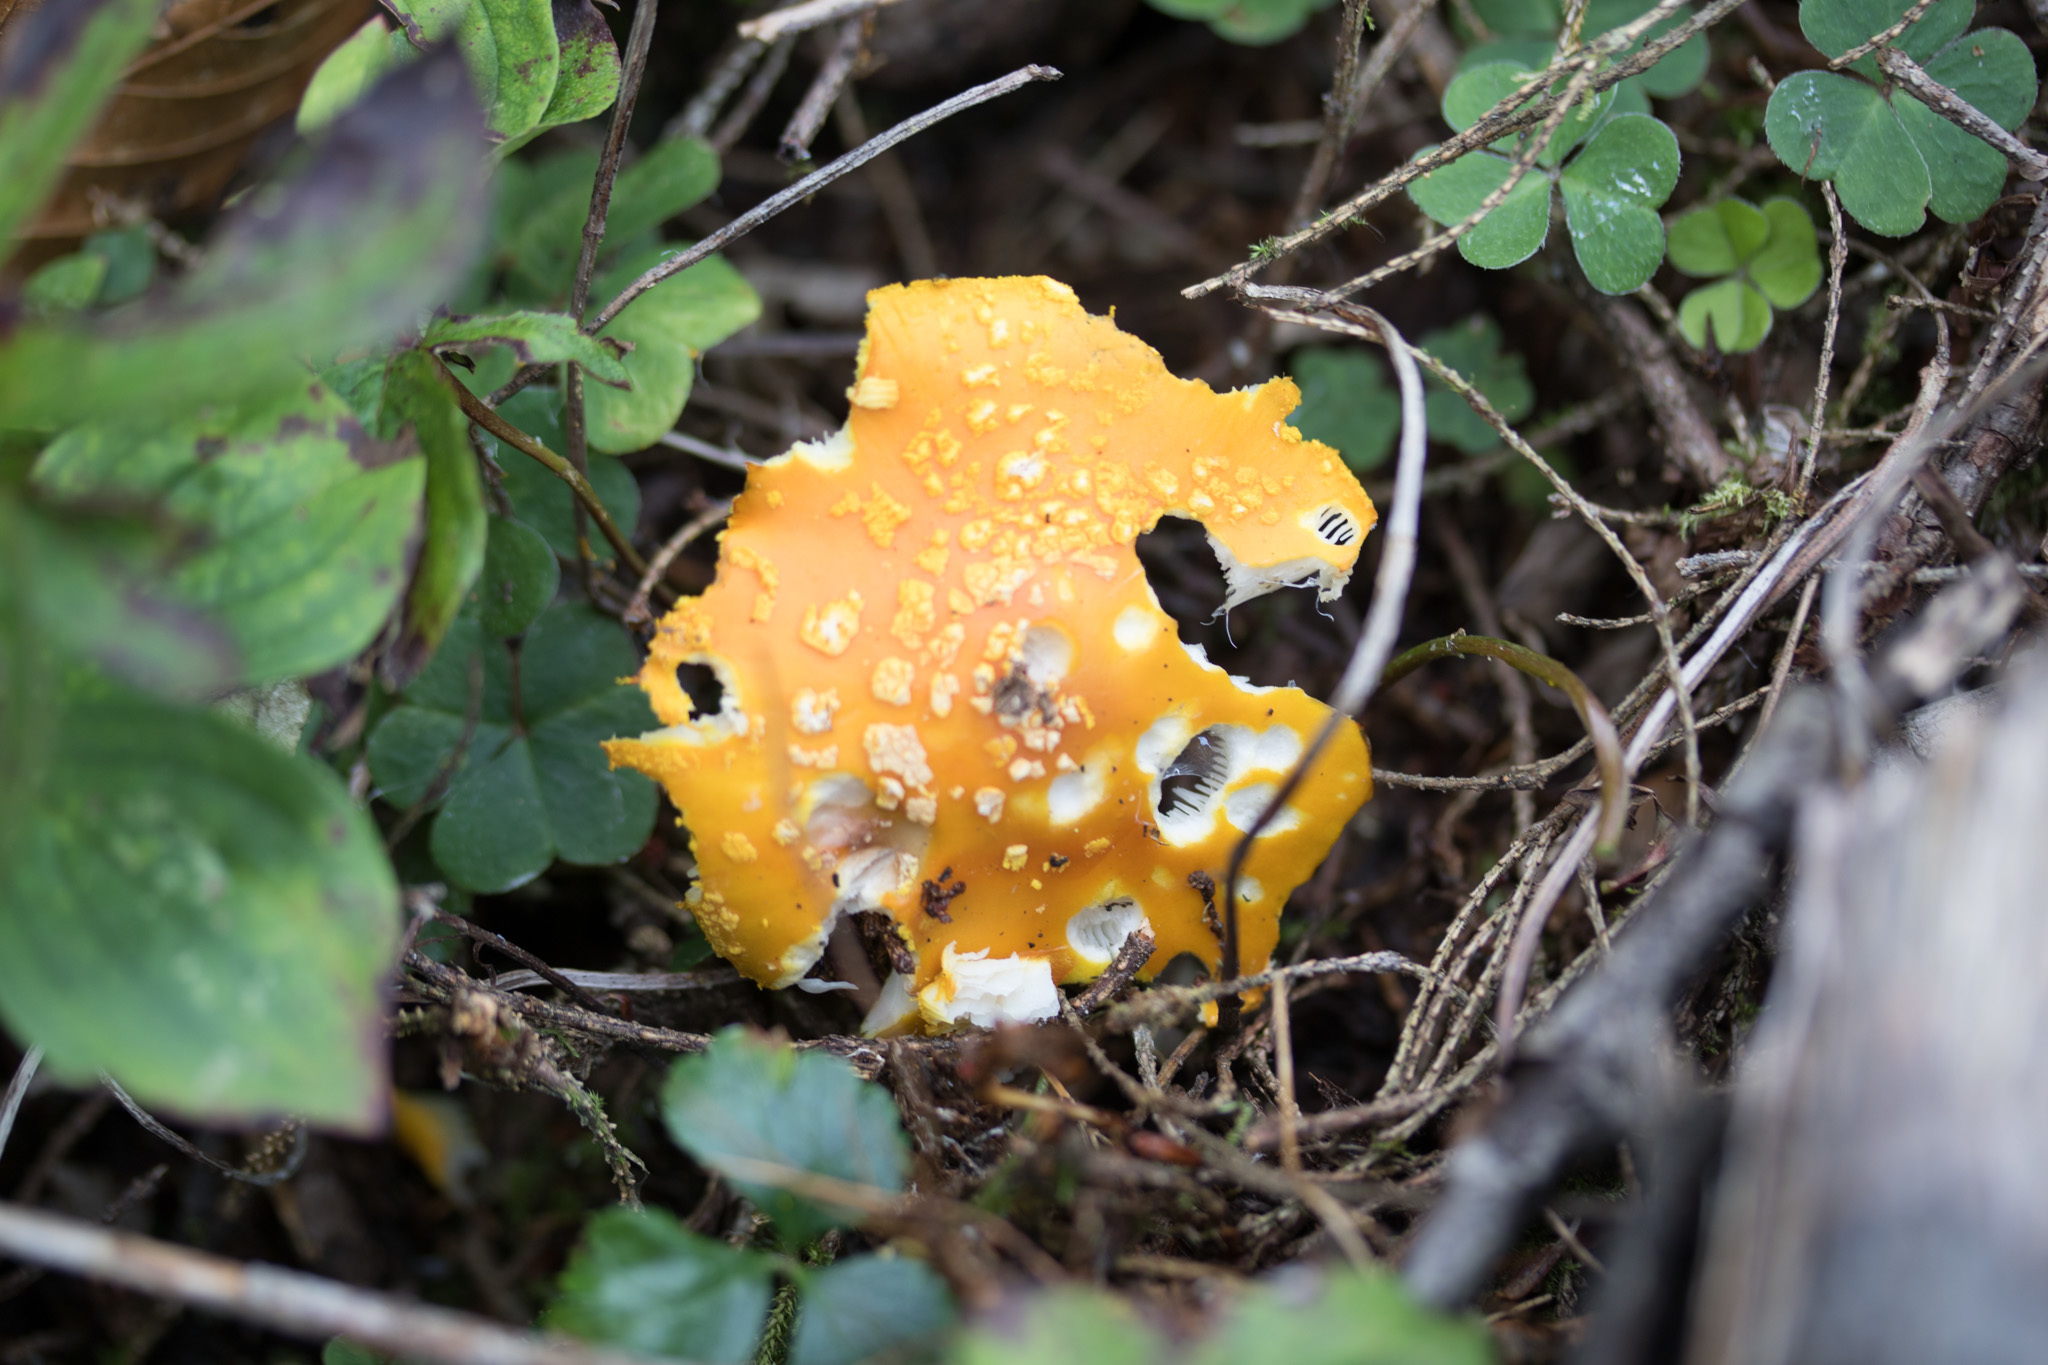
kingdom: Fungi
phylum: Basidiomycota
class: Agaricomycetes
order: Agaricales
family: Amanitaceae
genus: Amanita
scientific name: Amanita flavoconia
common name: Yellow patches
